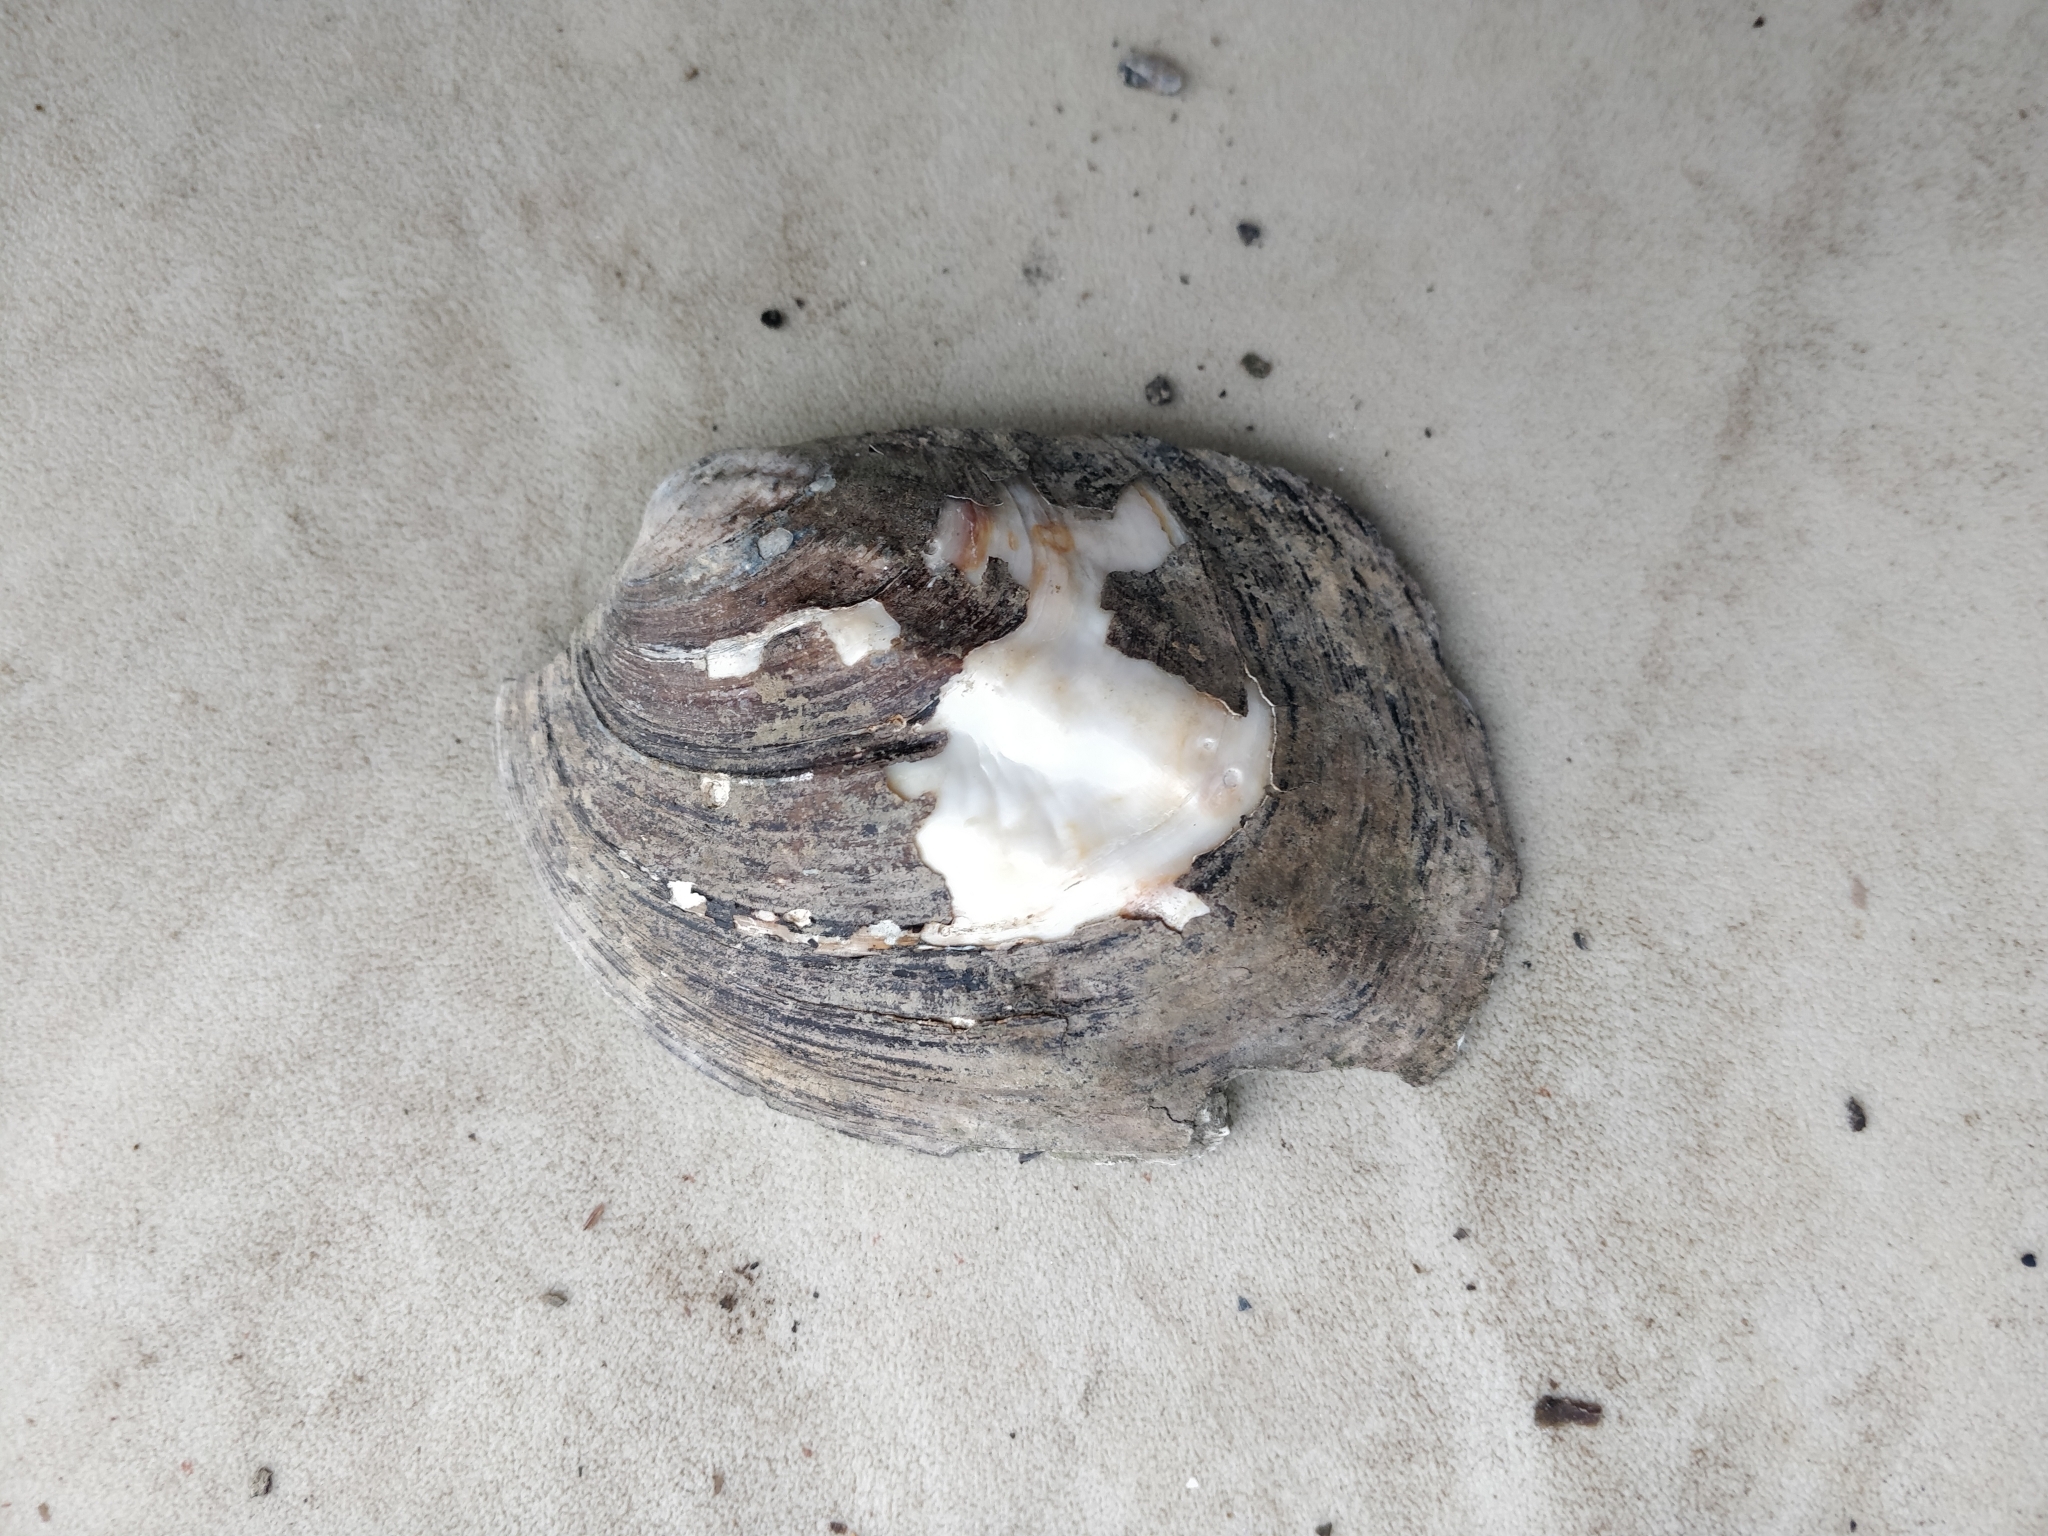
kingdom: Animalia
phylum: Mollusca
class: Bivalvia
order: Unionida
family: Unionidae
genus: Amblema
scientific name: Amblema plicata
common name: Threeridge
